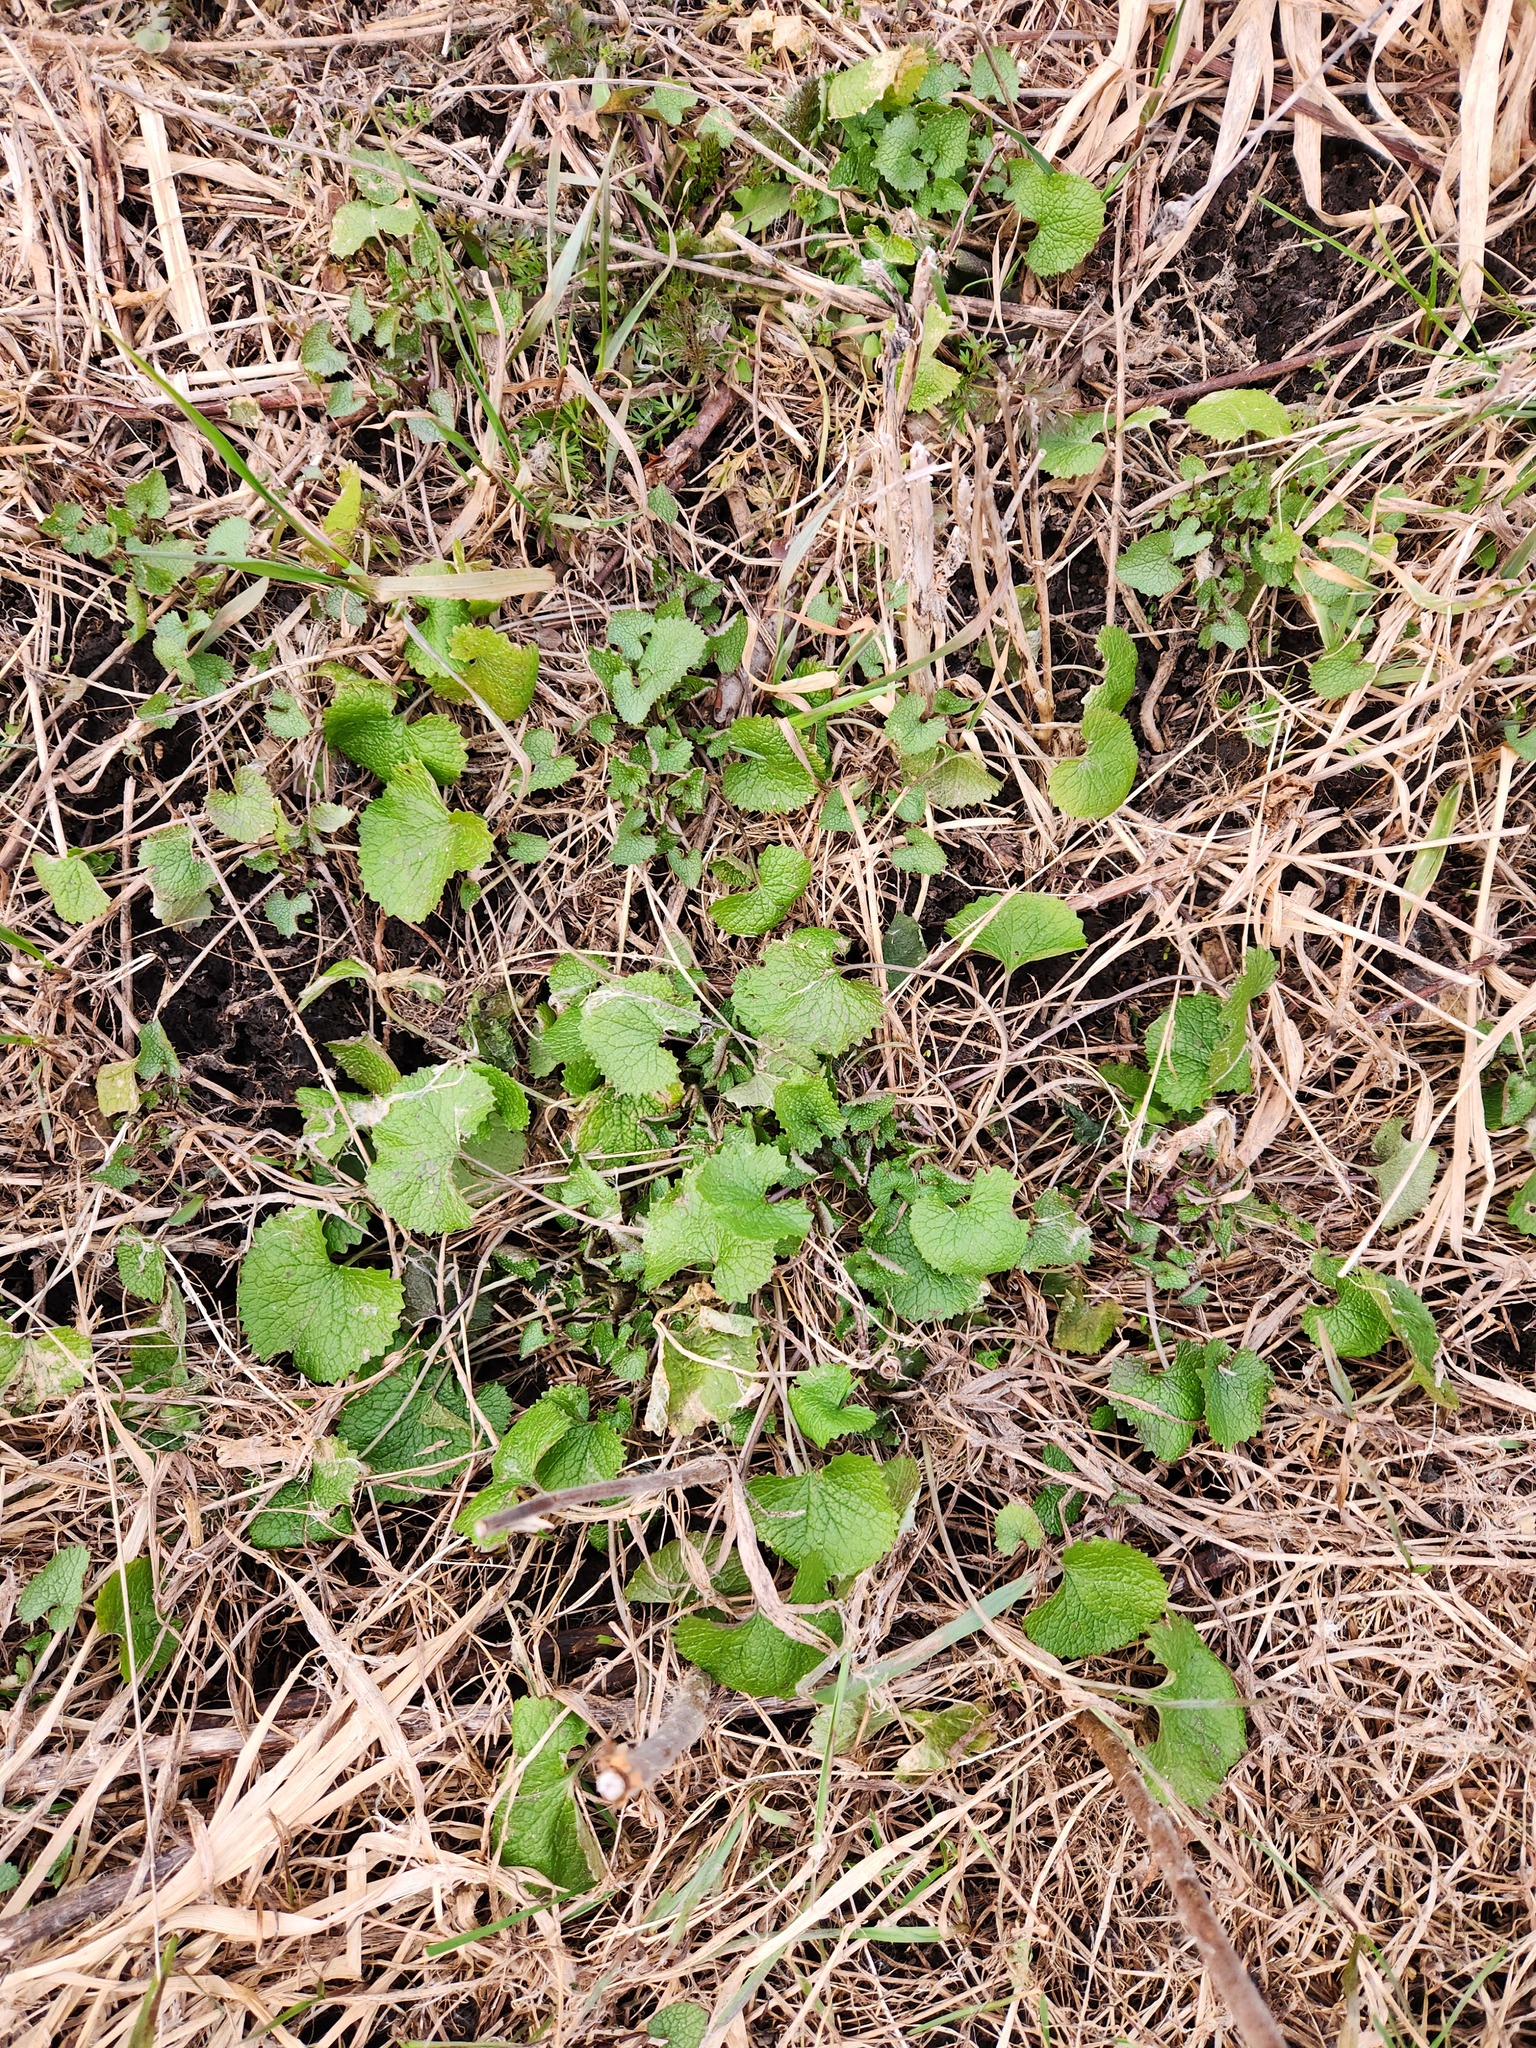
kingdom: Plantae
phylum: Tracheophyta
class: Magnoliopsida
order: Brassicales
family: Brassicaceae
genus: Alliaria
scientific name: Alliaria petiolata
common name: Garlic mustard
